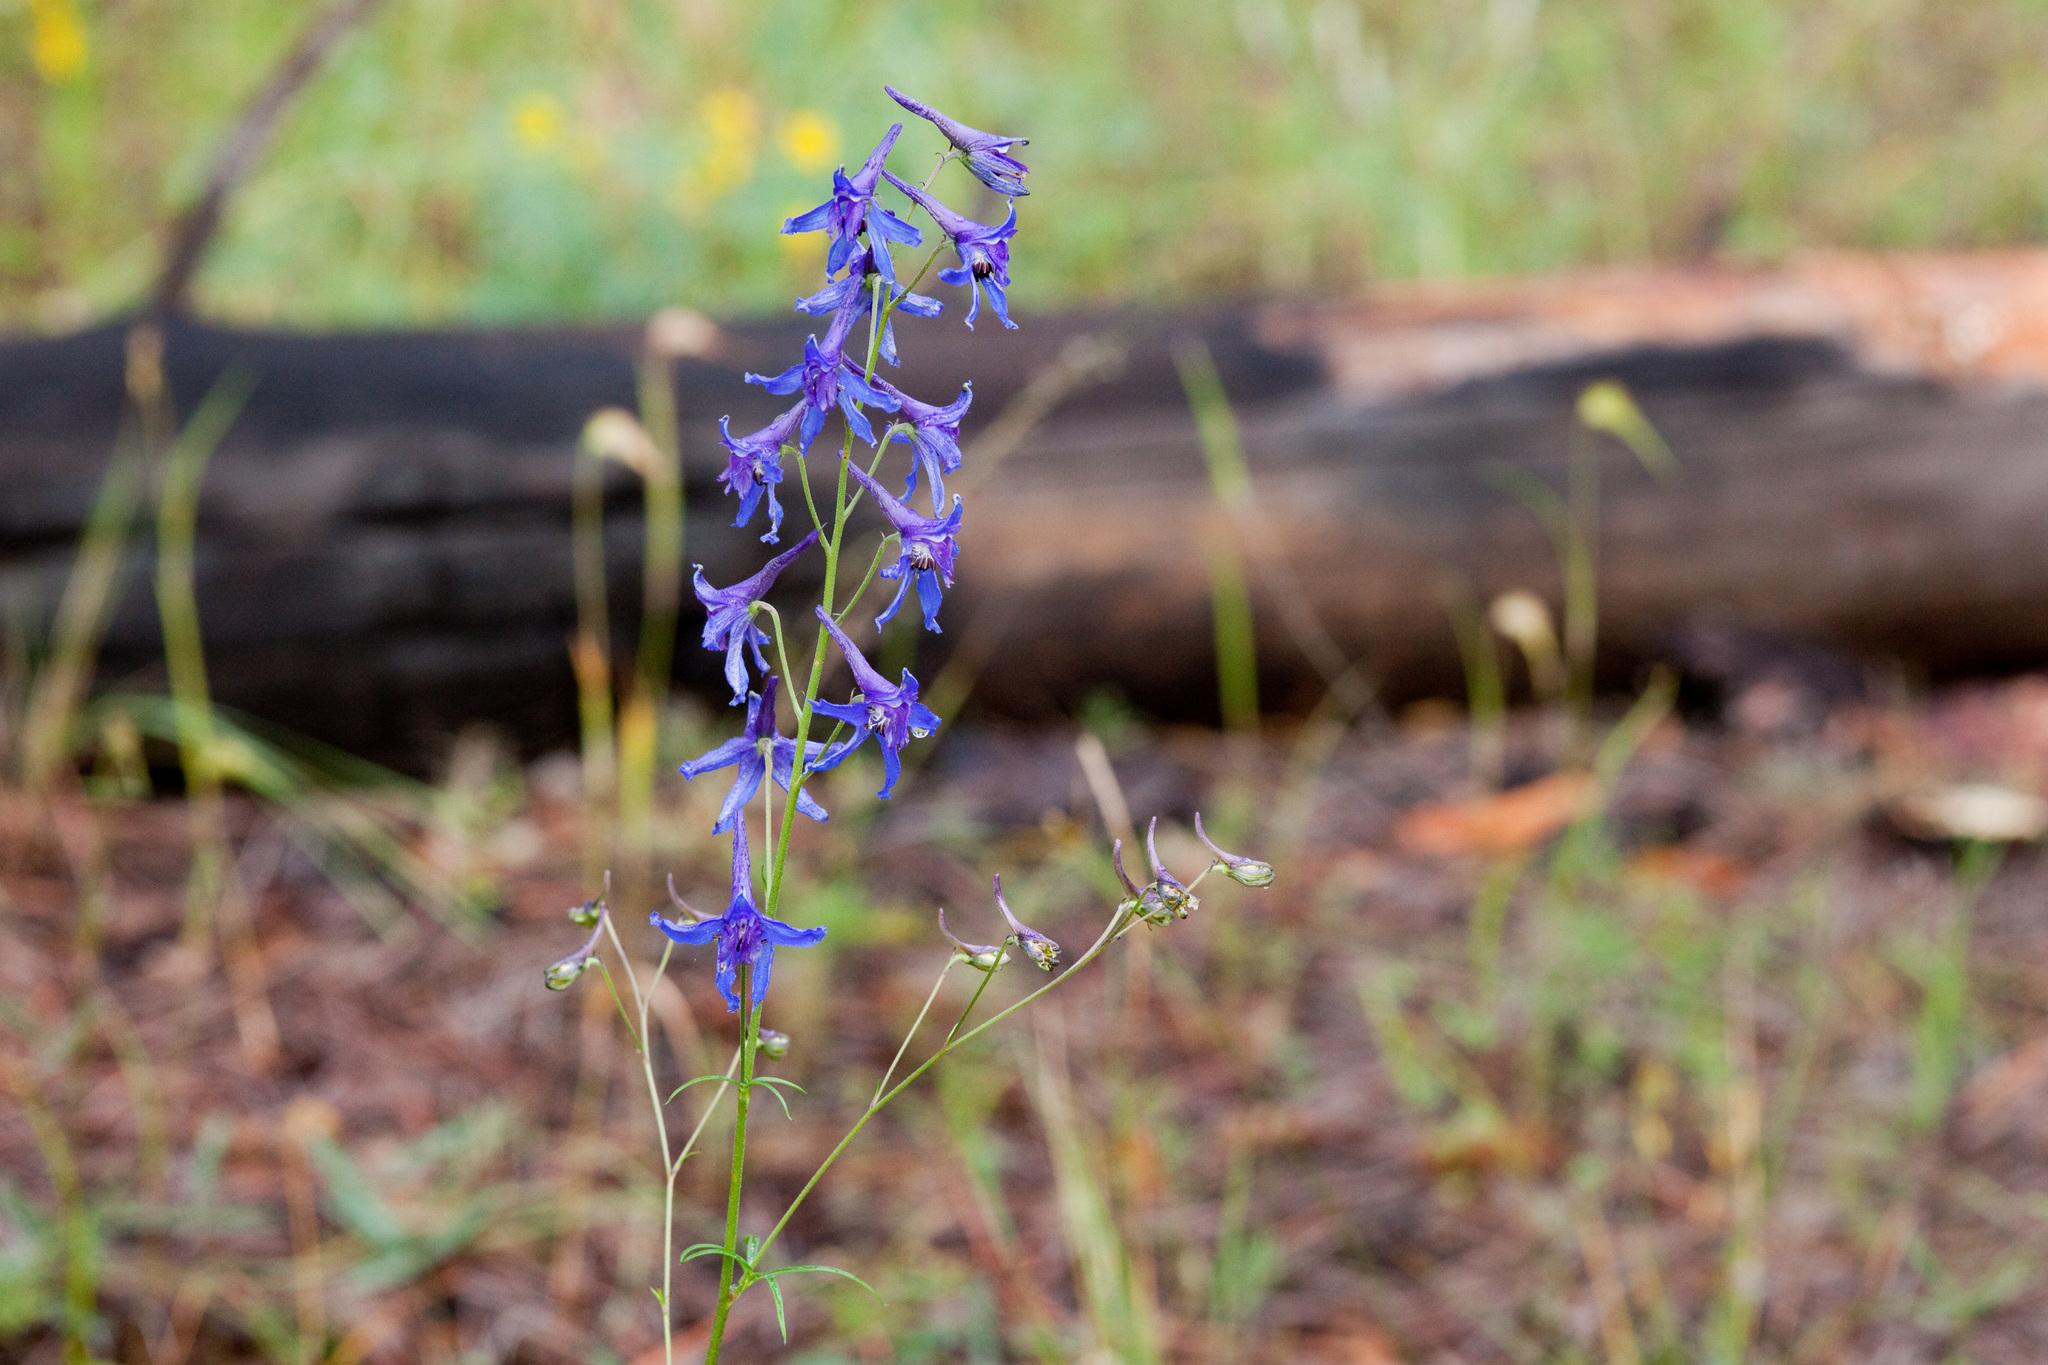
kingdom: Plantae
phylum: Tracheophyta
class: Magnoliopsida
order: Ranunculales
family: Ranunculaceae
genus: Delphinium
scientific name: Delphinium scopulorum
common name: Rocky mountain larkspur
